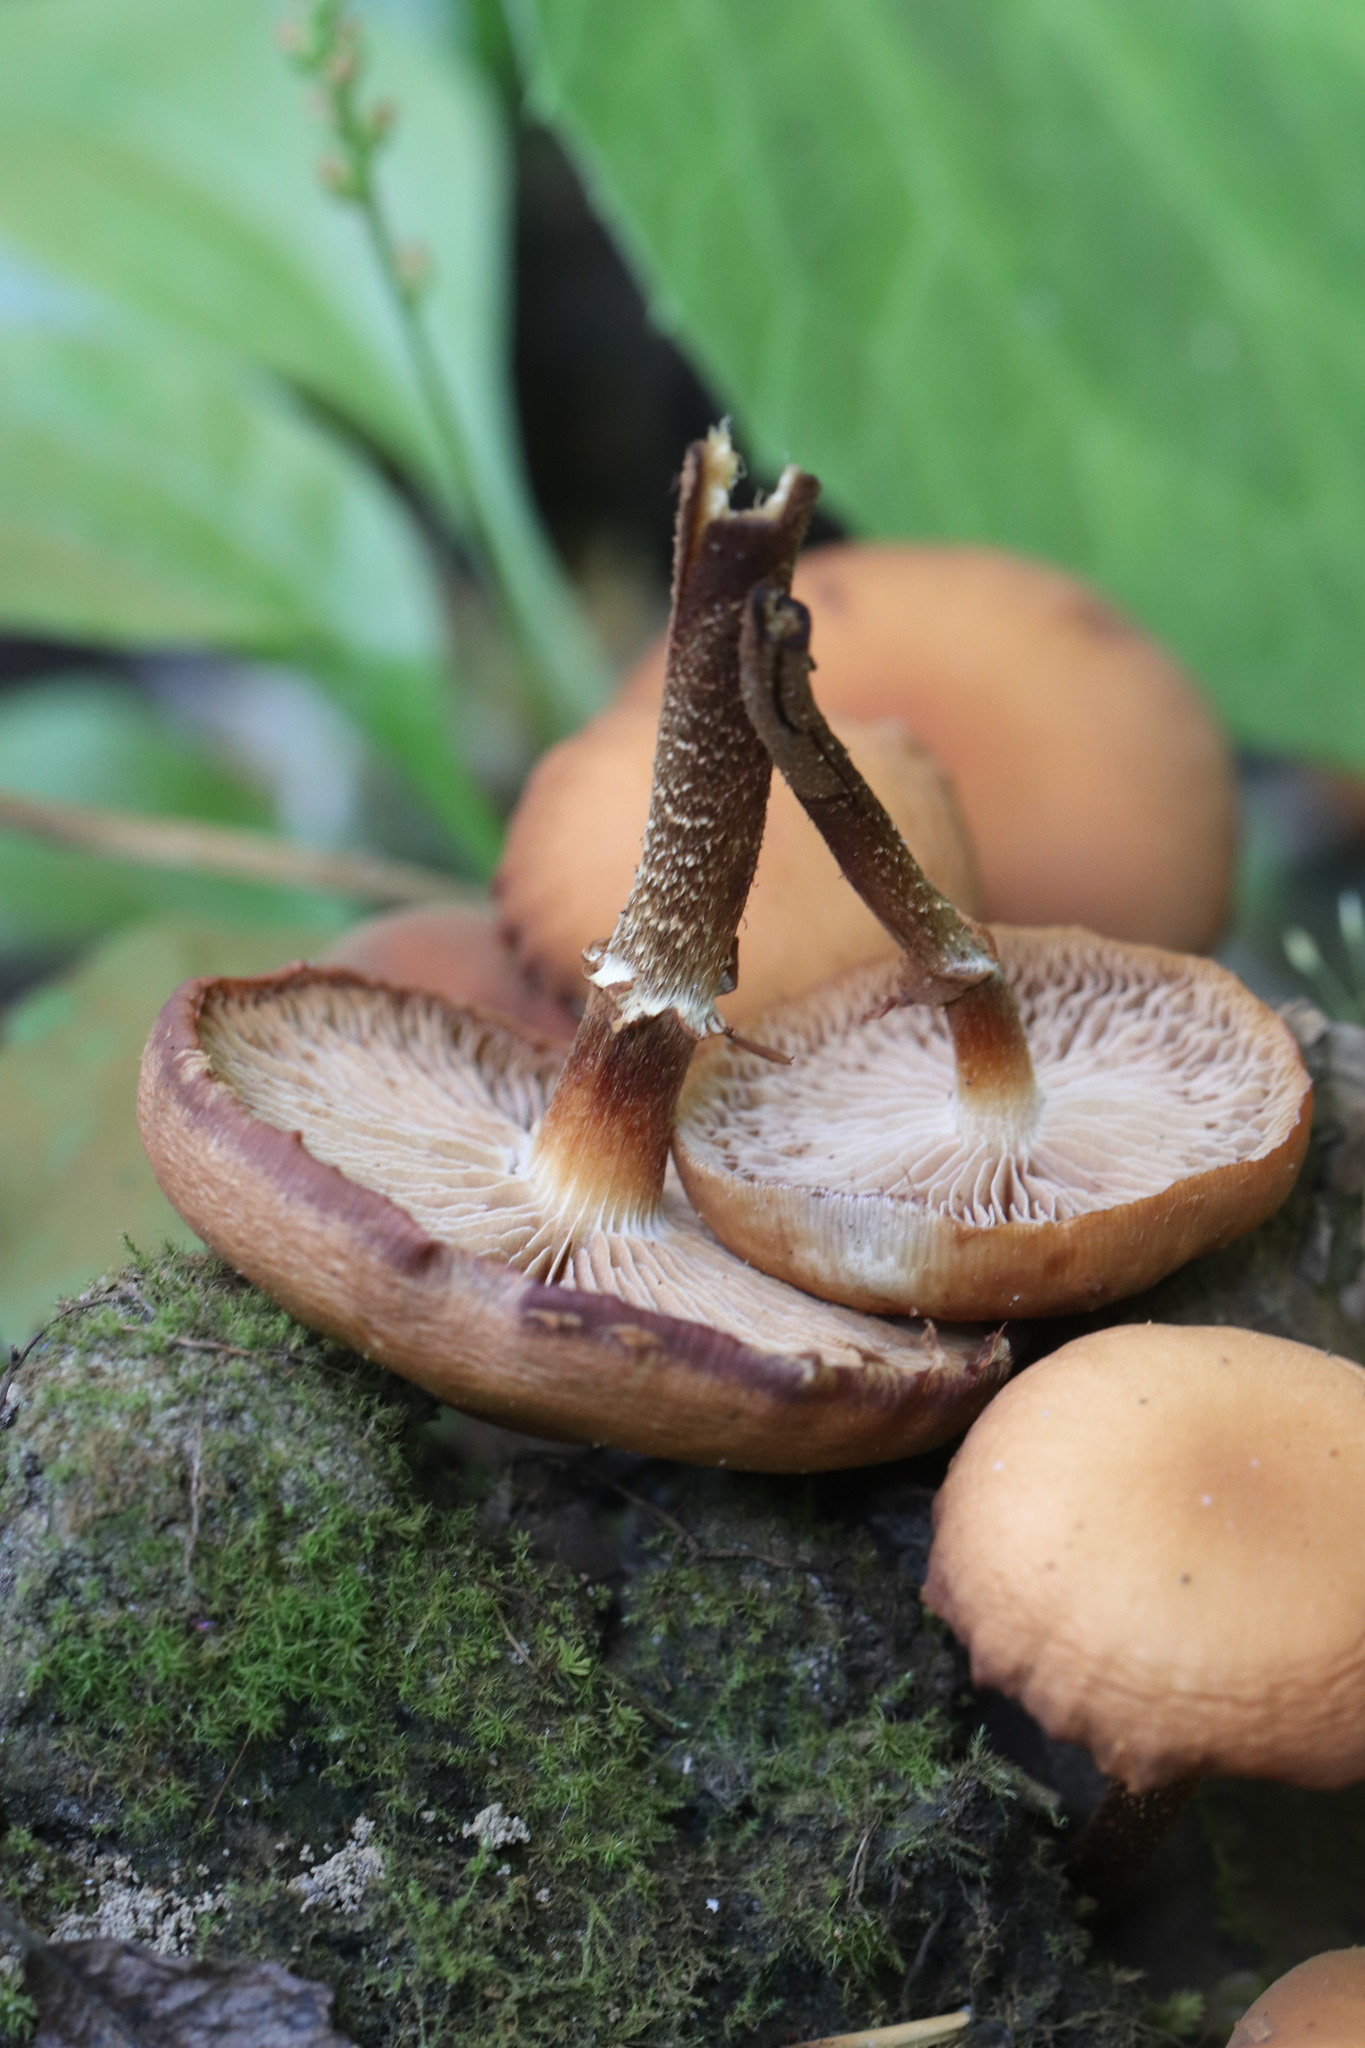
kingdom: Fungi
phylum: Basidiomycota
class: Agaricomycetes
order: Agaricales
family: Strophariaceae
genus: Kuehneromyces
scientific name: Kuehneromyces mutabilis
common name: Sheathed woodtuft
